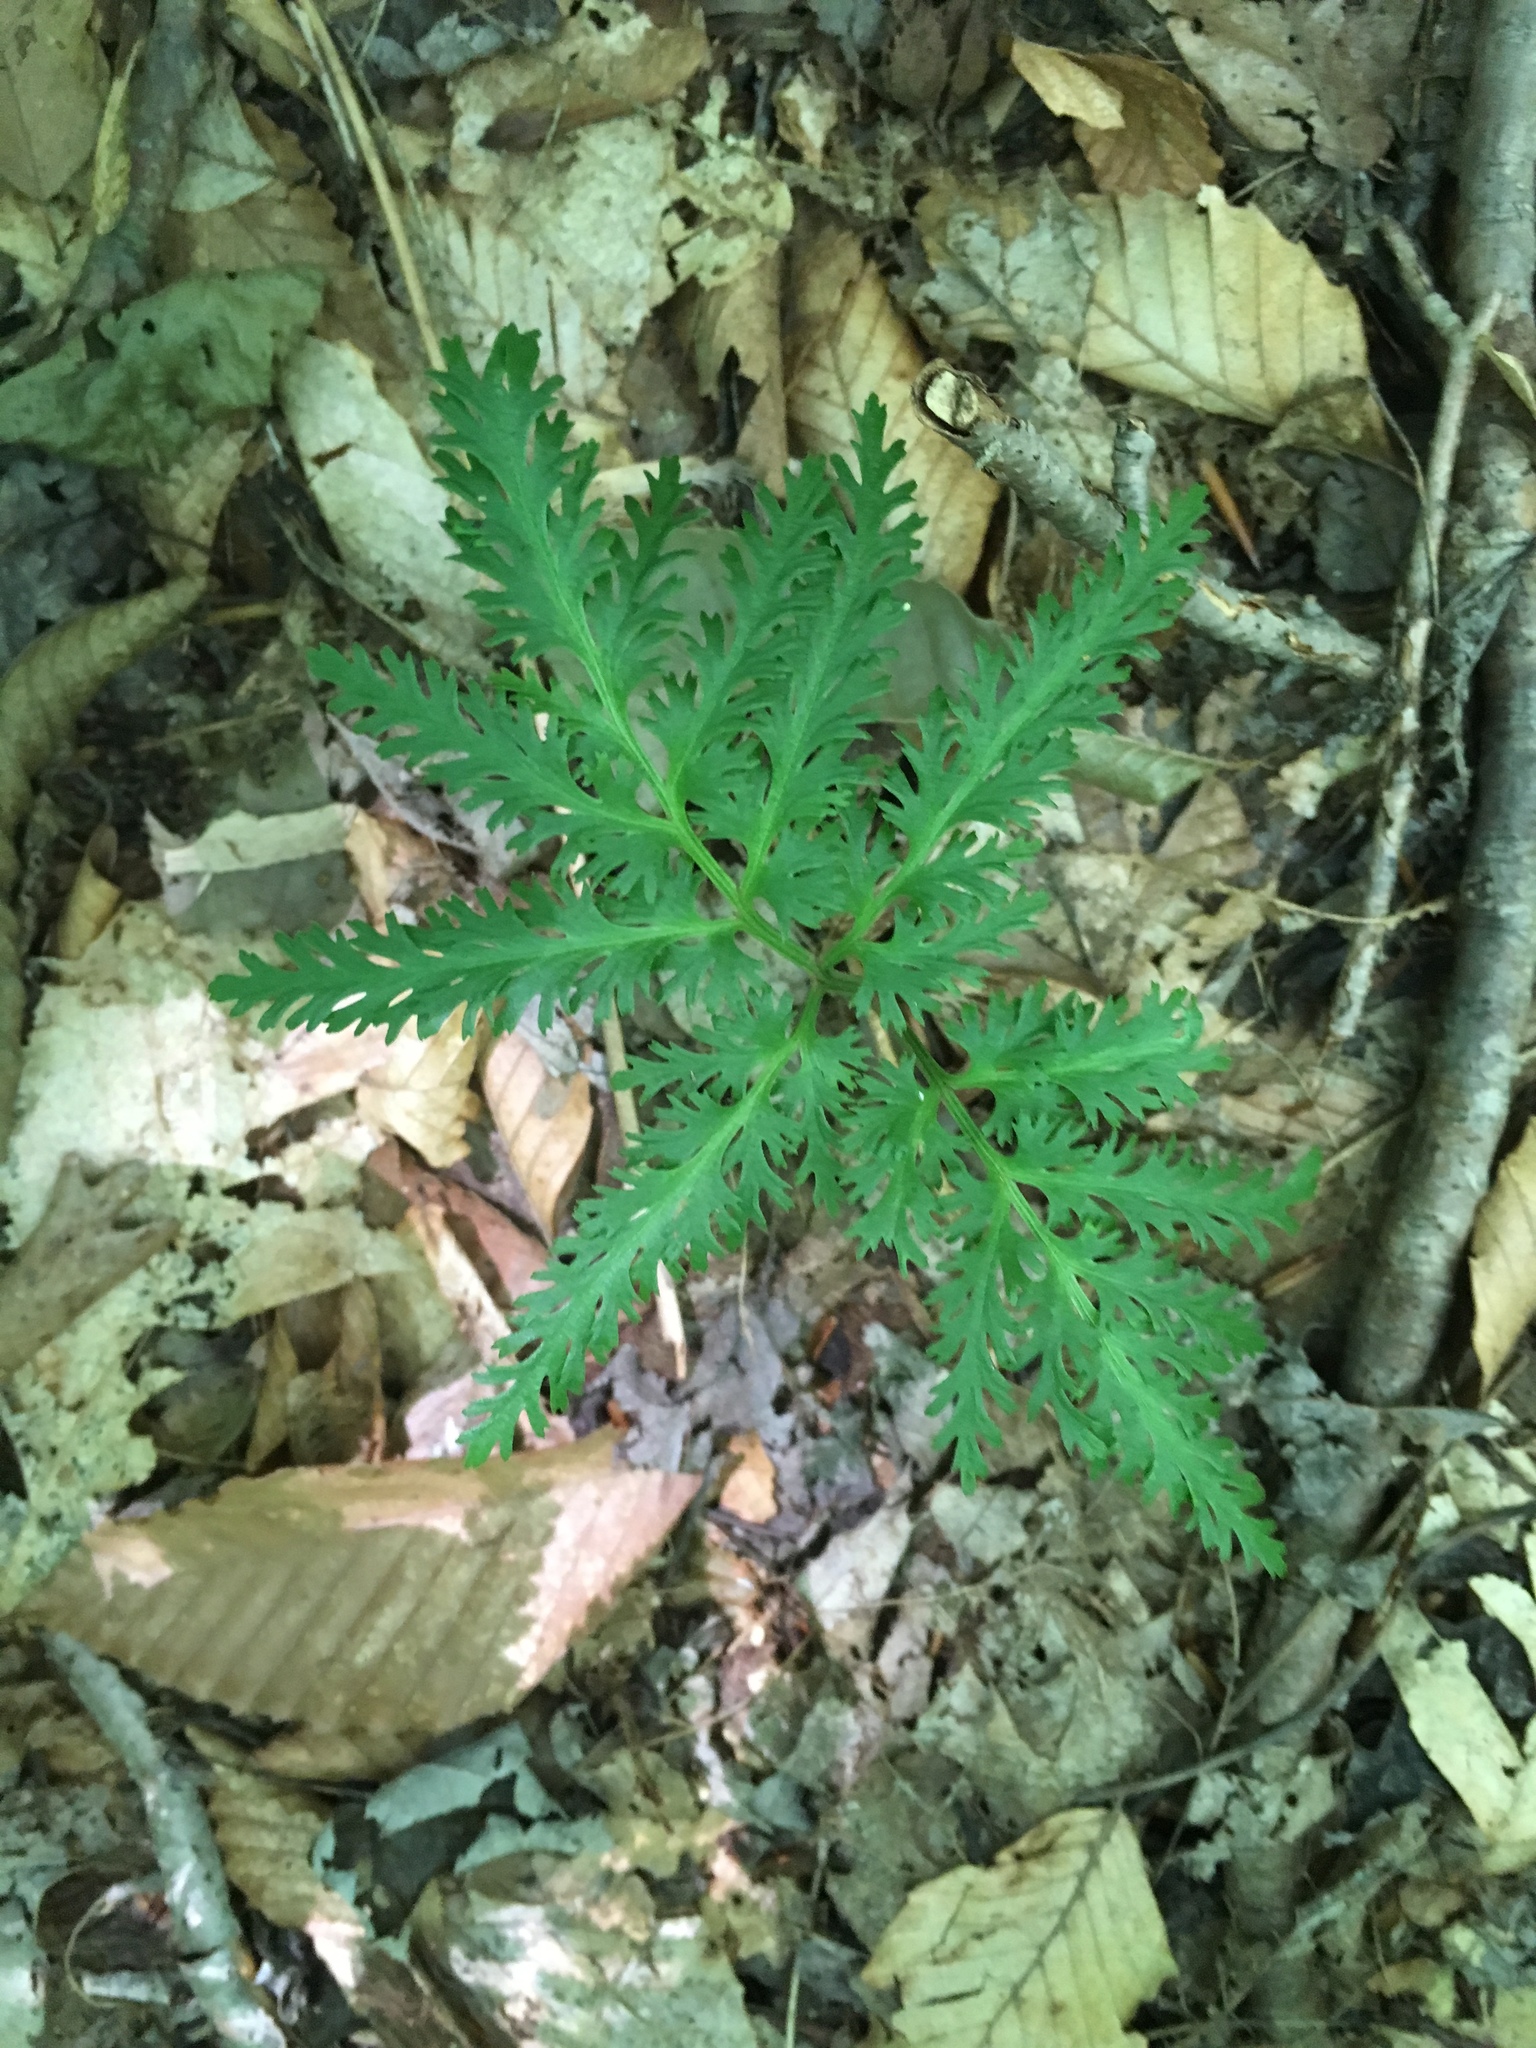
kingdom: Plantae
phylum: Tracheophyta
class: Polypodiopsida
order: Ophioglossales
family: Ophioglossaceae
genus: Sceptridium
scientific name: Sceptridium dissectum
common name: Cut-leaved grapefern
